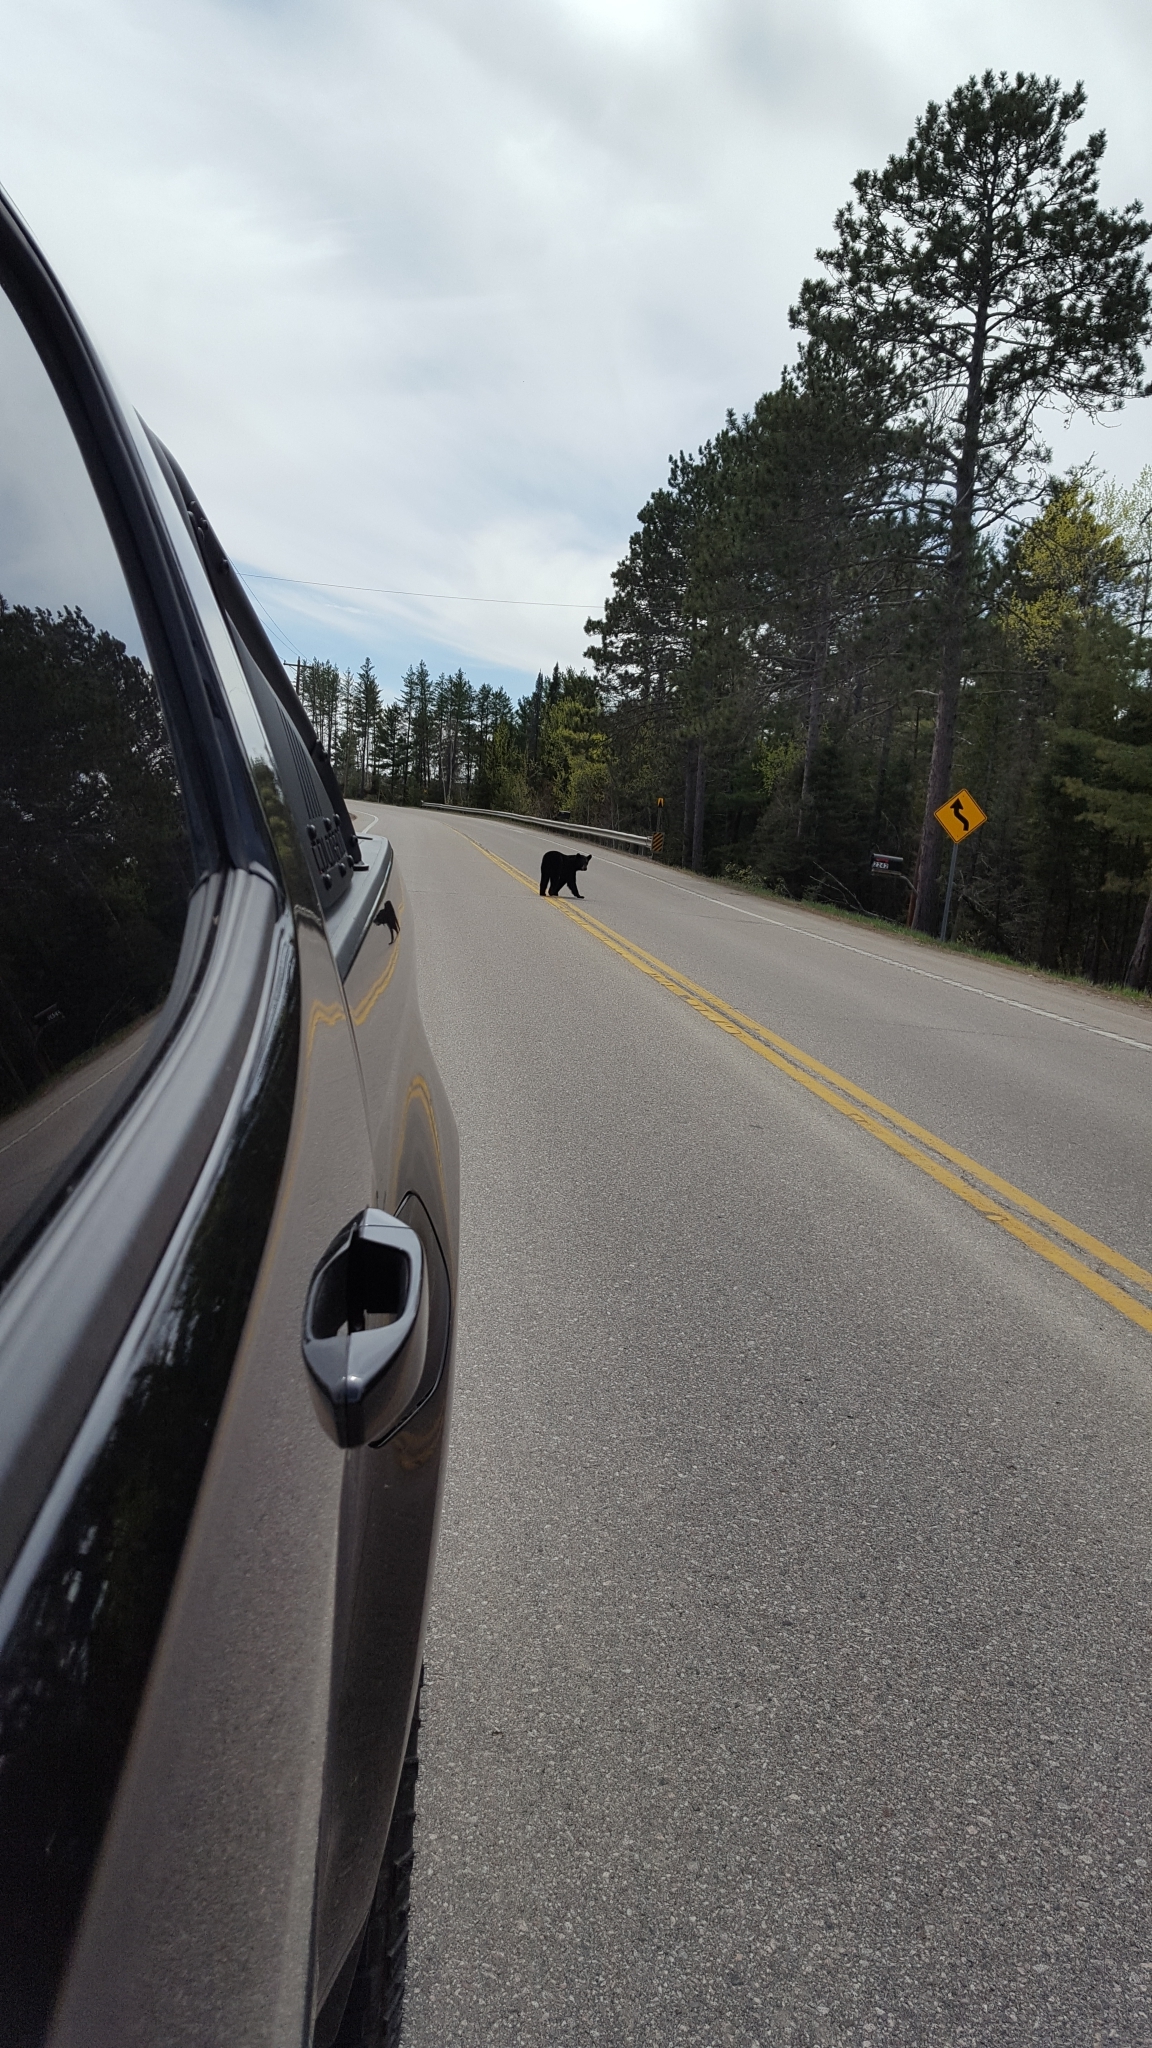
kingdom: Animalia
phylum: Chordata
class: Mammalia
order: Carnivora
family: Ursidae
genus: Ursus
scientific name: Ursus americanus
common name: American black bear
